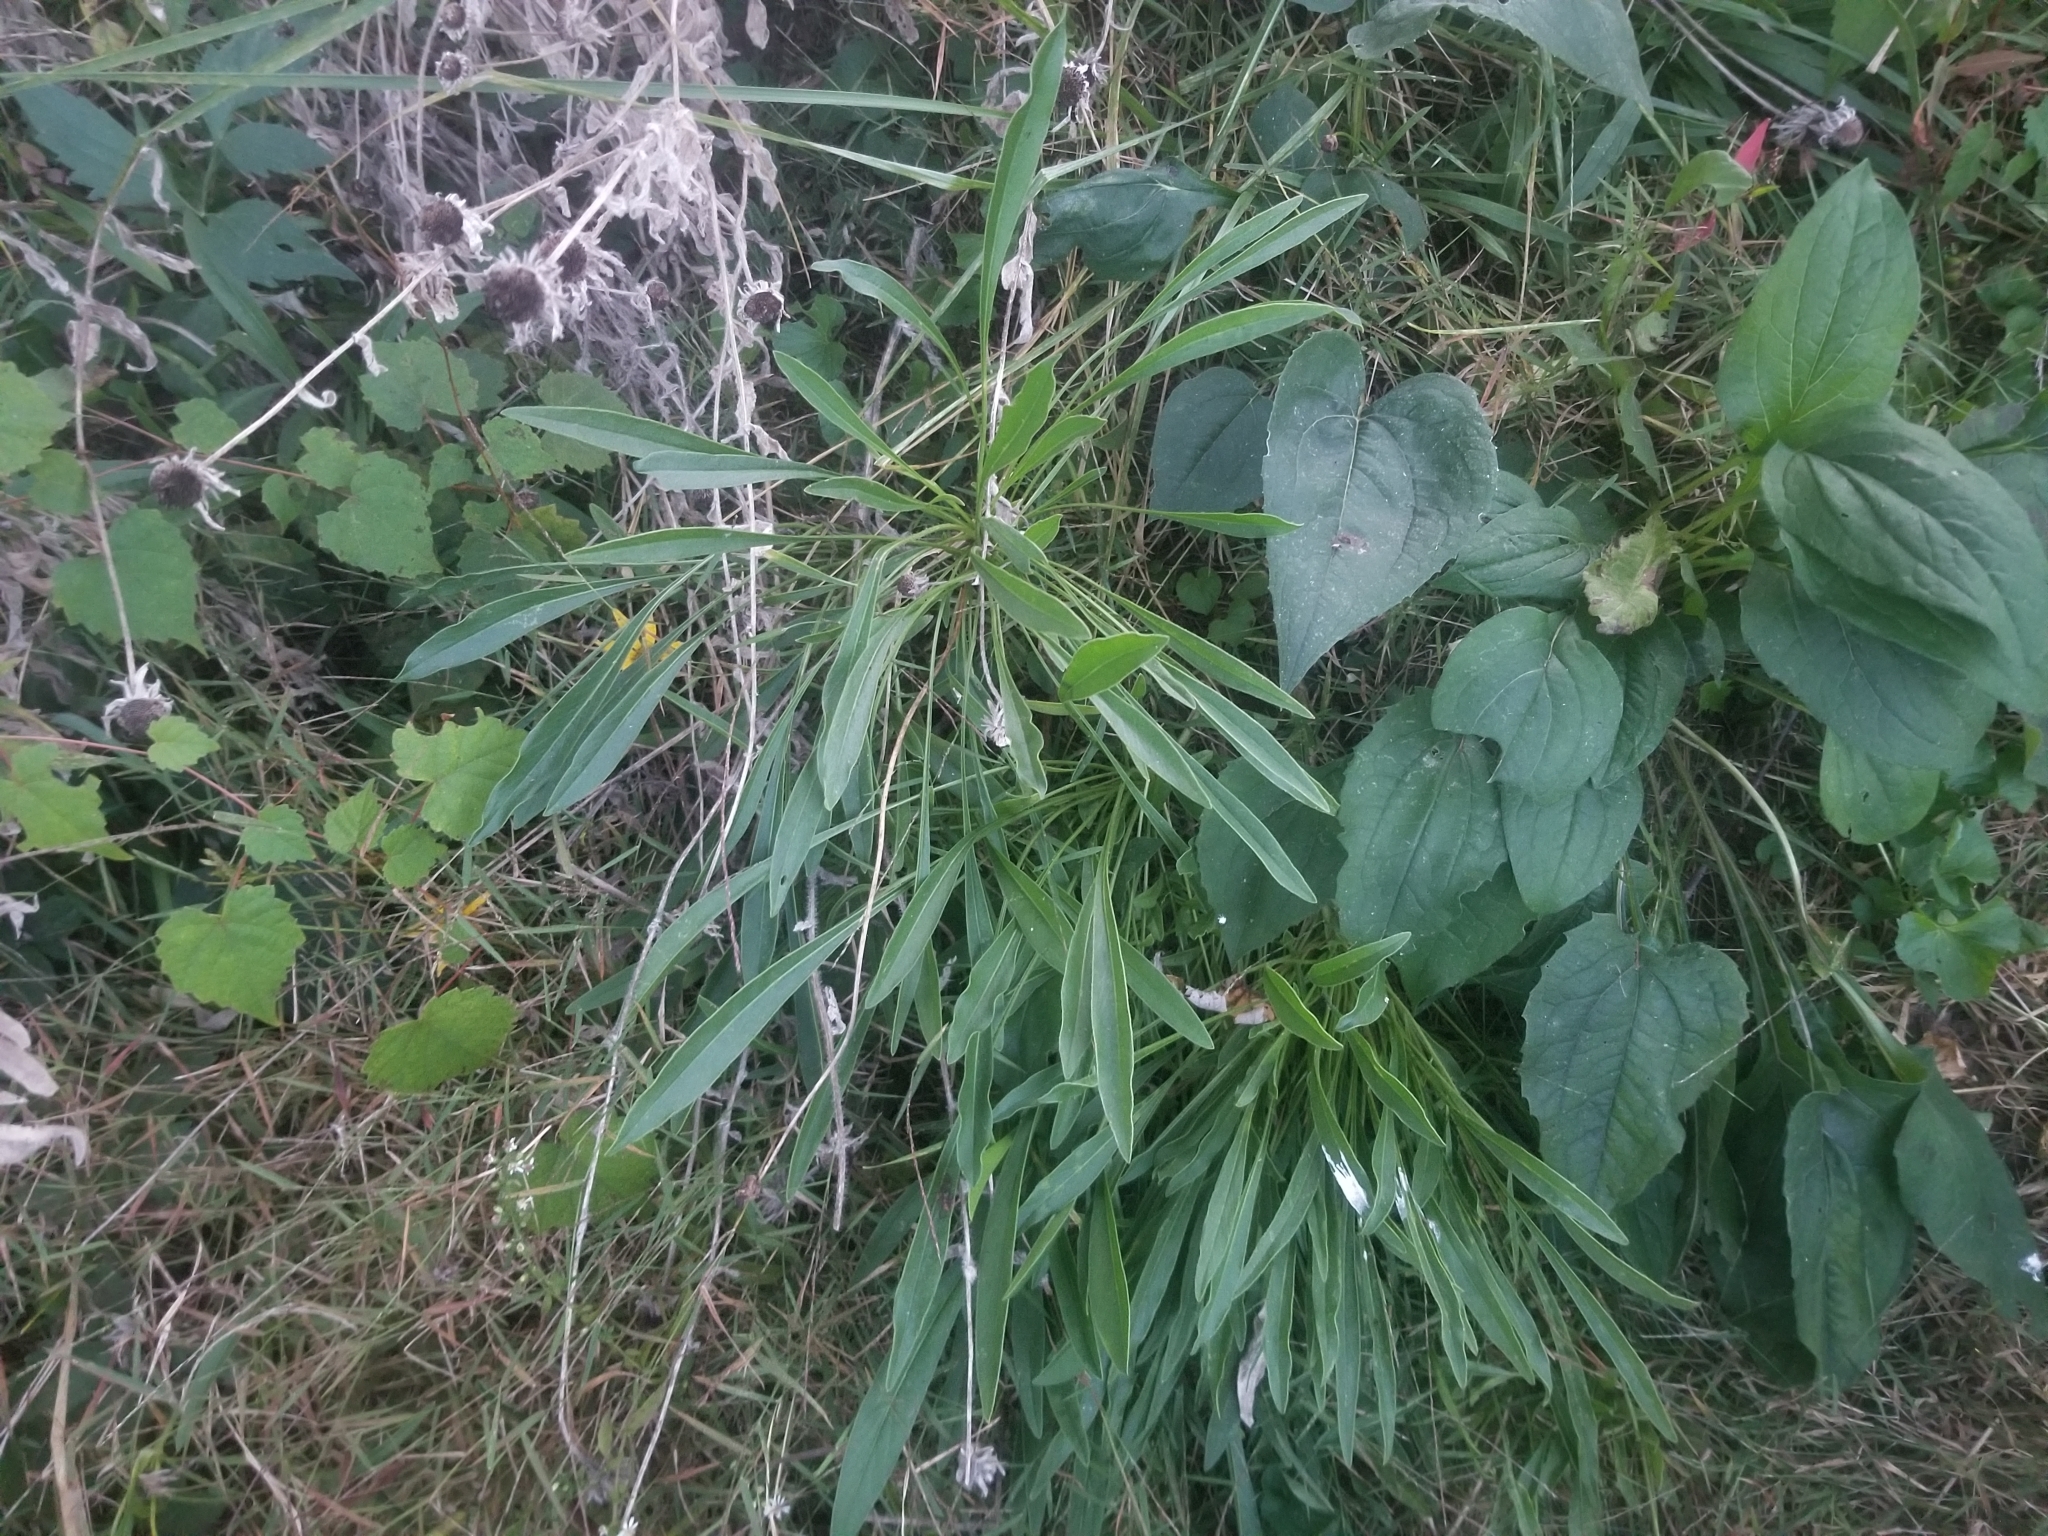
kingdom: Plantae
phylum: Tracheophyta
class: Magnoliopsida
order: Lamiales
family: Plantaginaceae
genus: Plantago
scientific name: Plantago lanceolata
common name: Ribwort plantain
